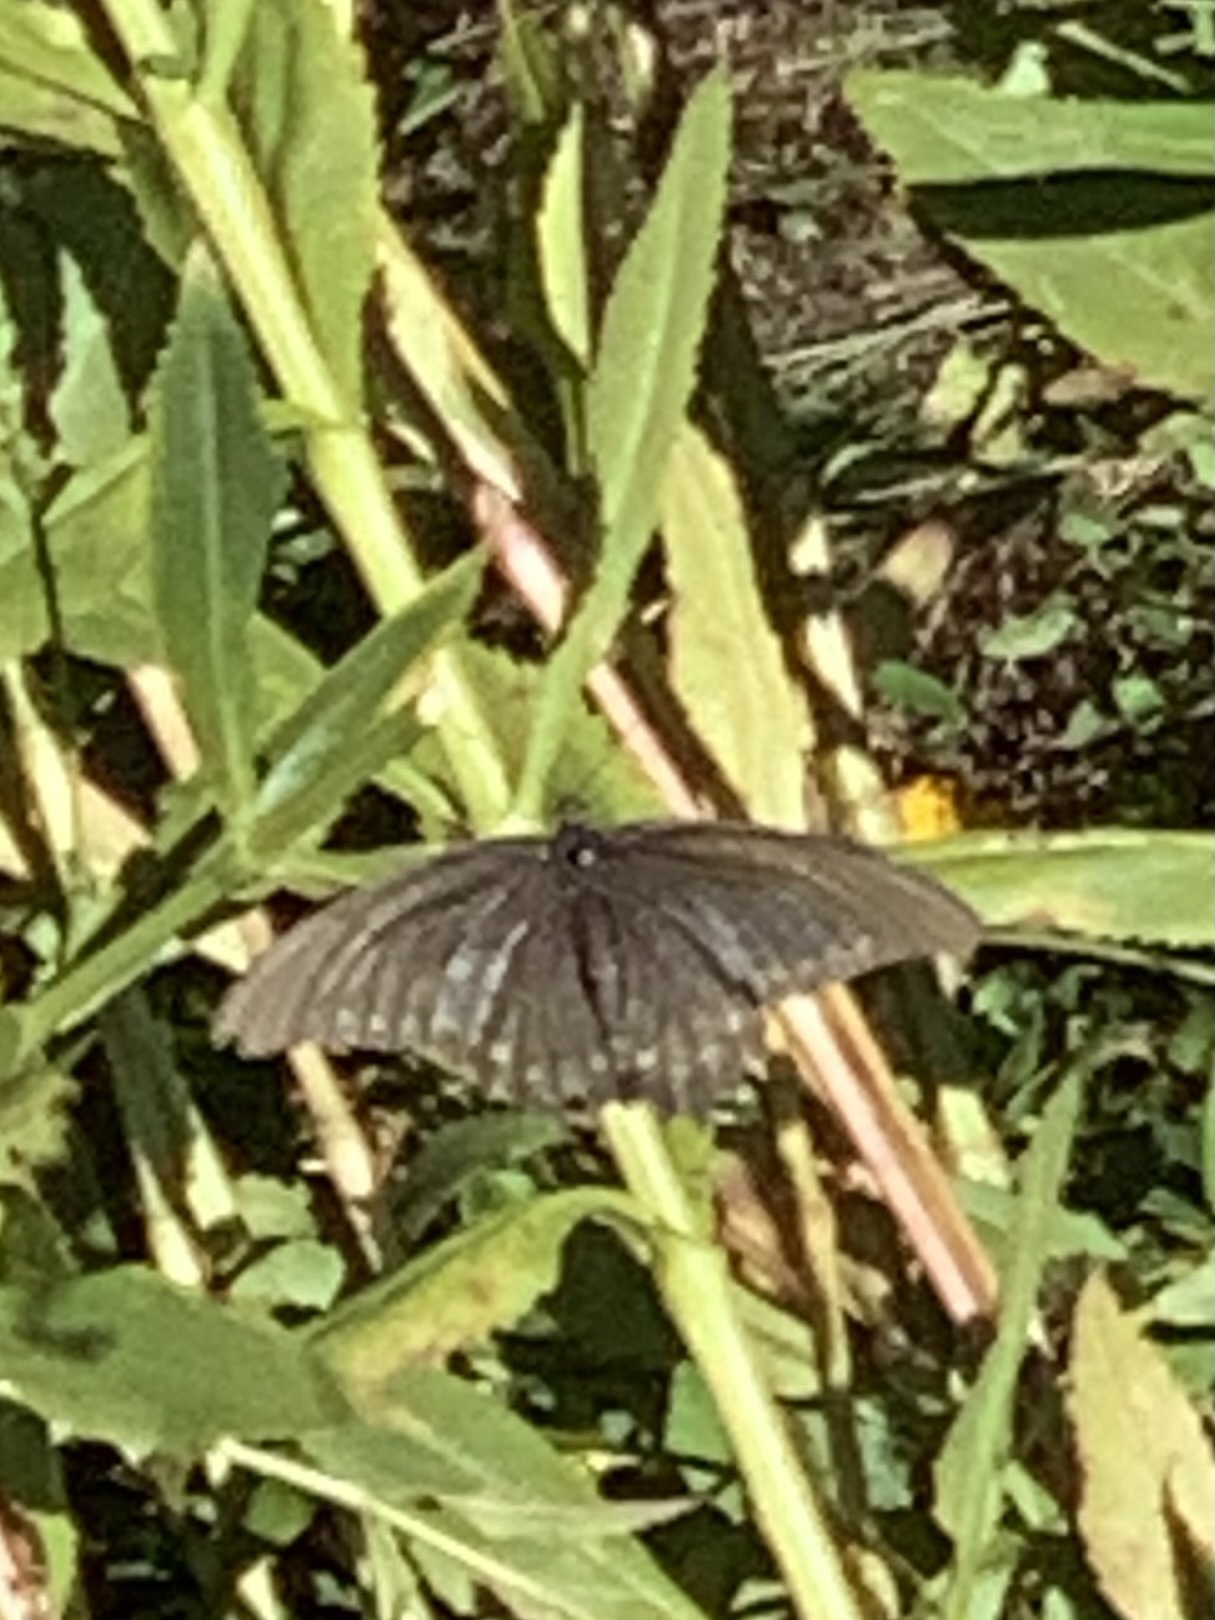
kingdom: Animalia
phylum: Arthropoda
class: Insecta
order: Lepidoptera
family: Papilionidae
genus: Battus
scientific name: Battus philenor
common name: Pipevine swallowtail
